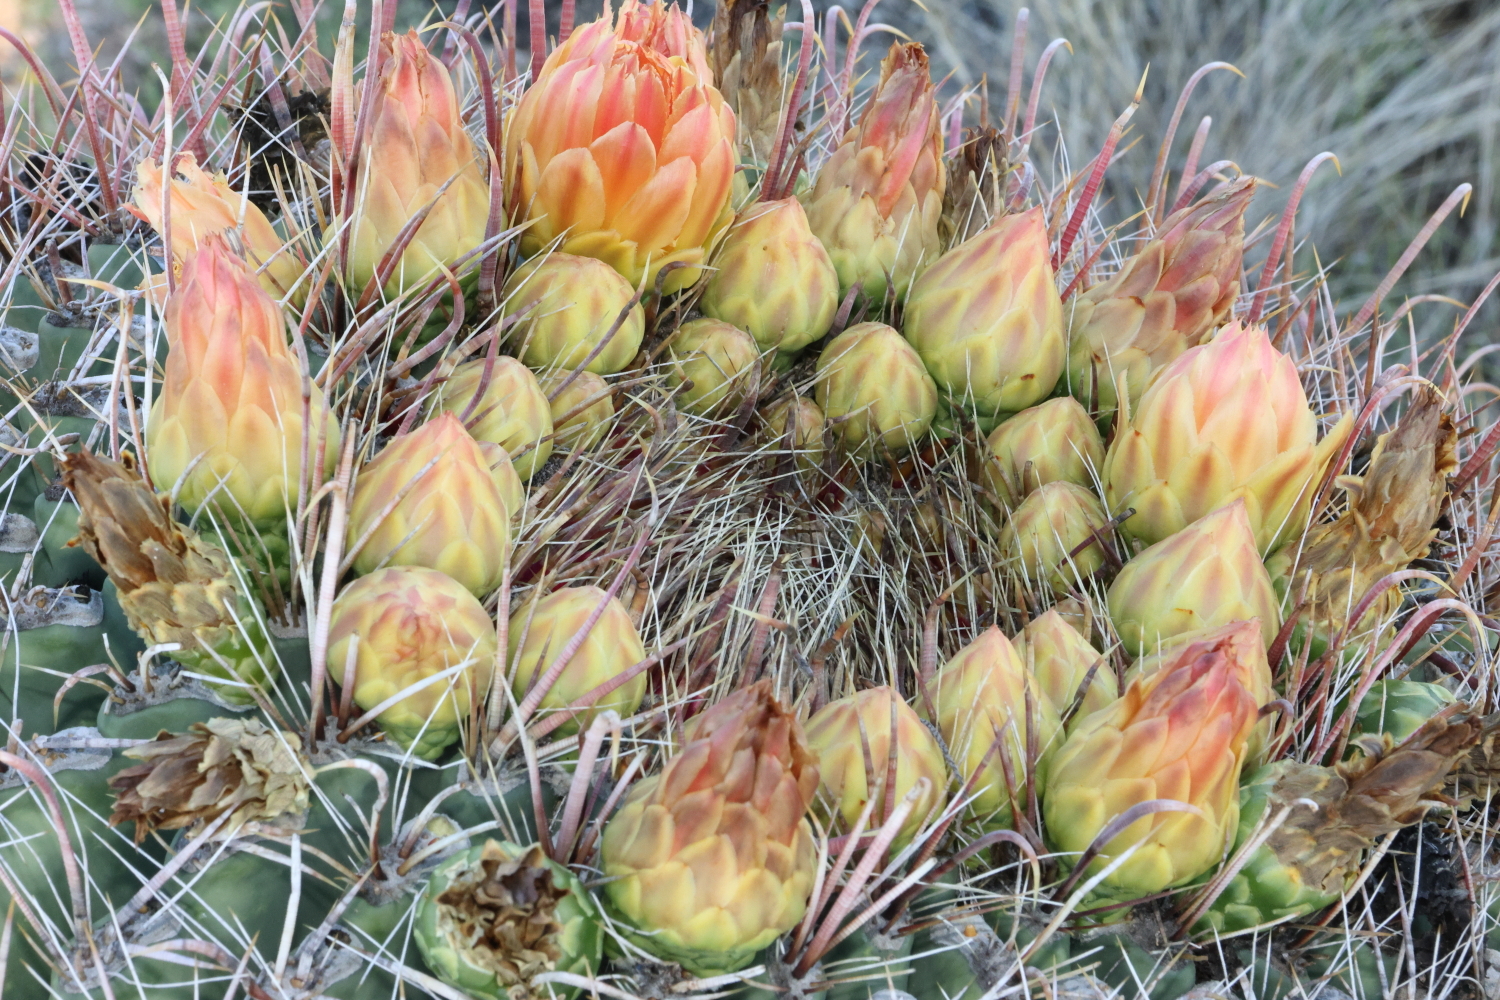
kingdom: Plantae
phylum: Tracheophyta
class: Magnoliopsida
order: Caryophyllales
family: Cactaceae
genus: Ferocactus
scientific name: Ferocactus wislizeni
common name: Candy barrel cactus
